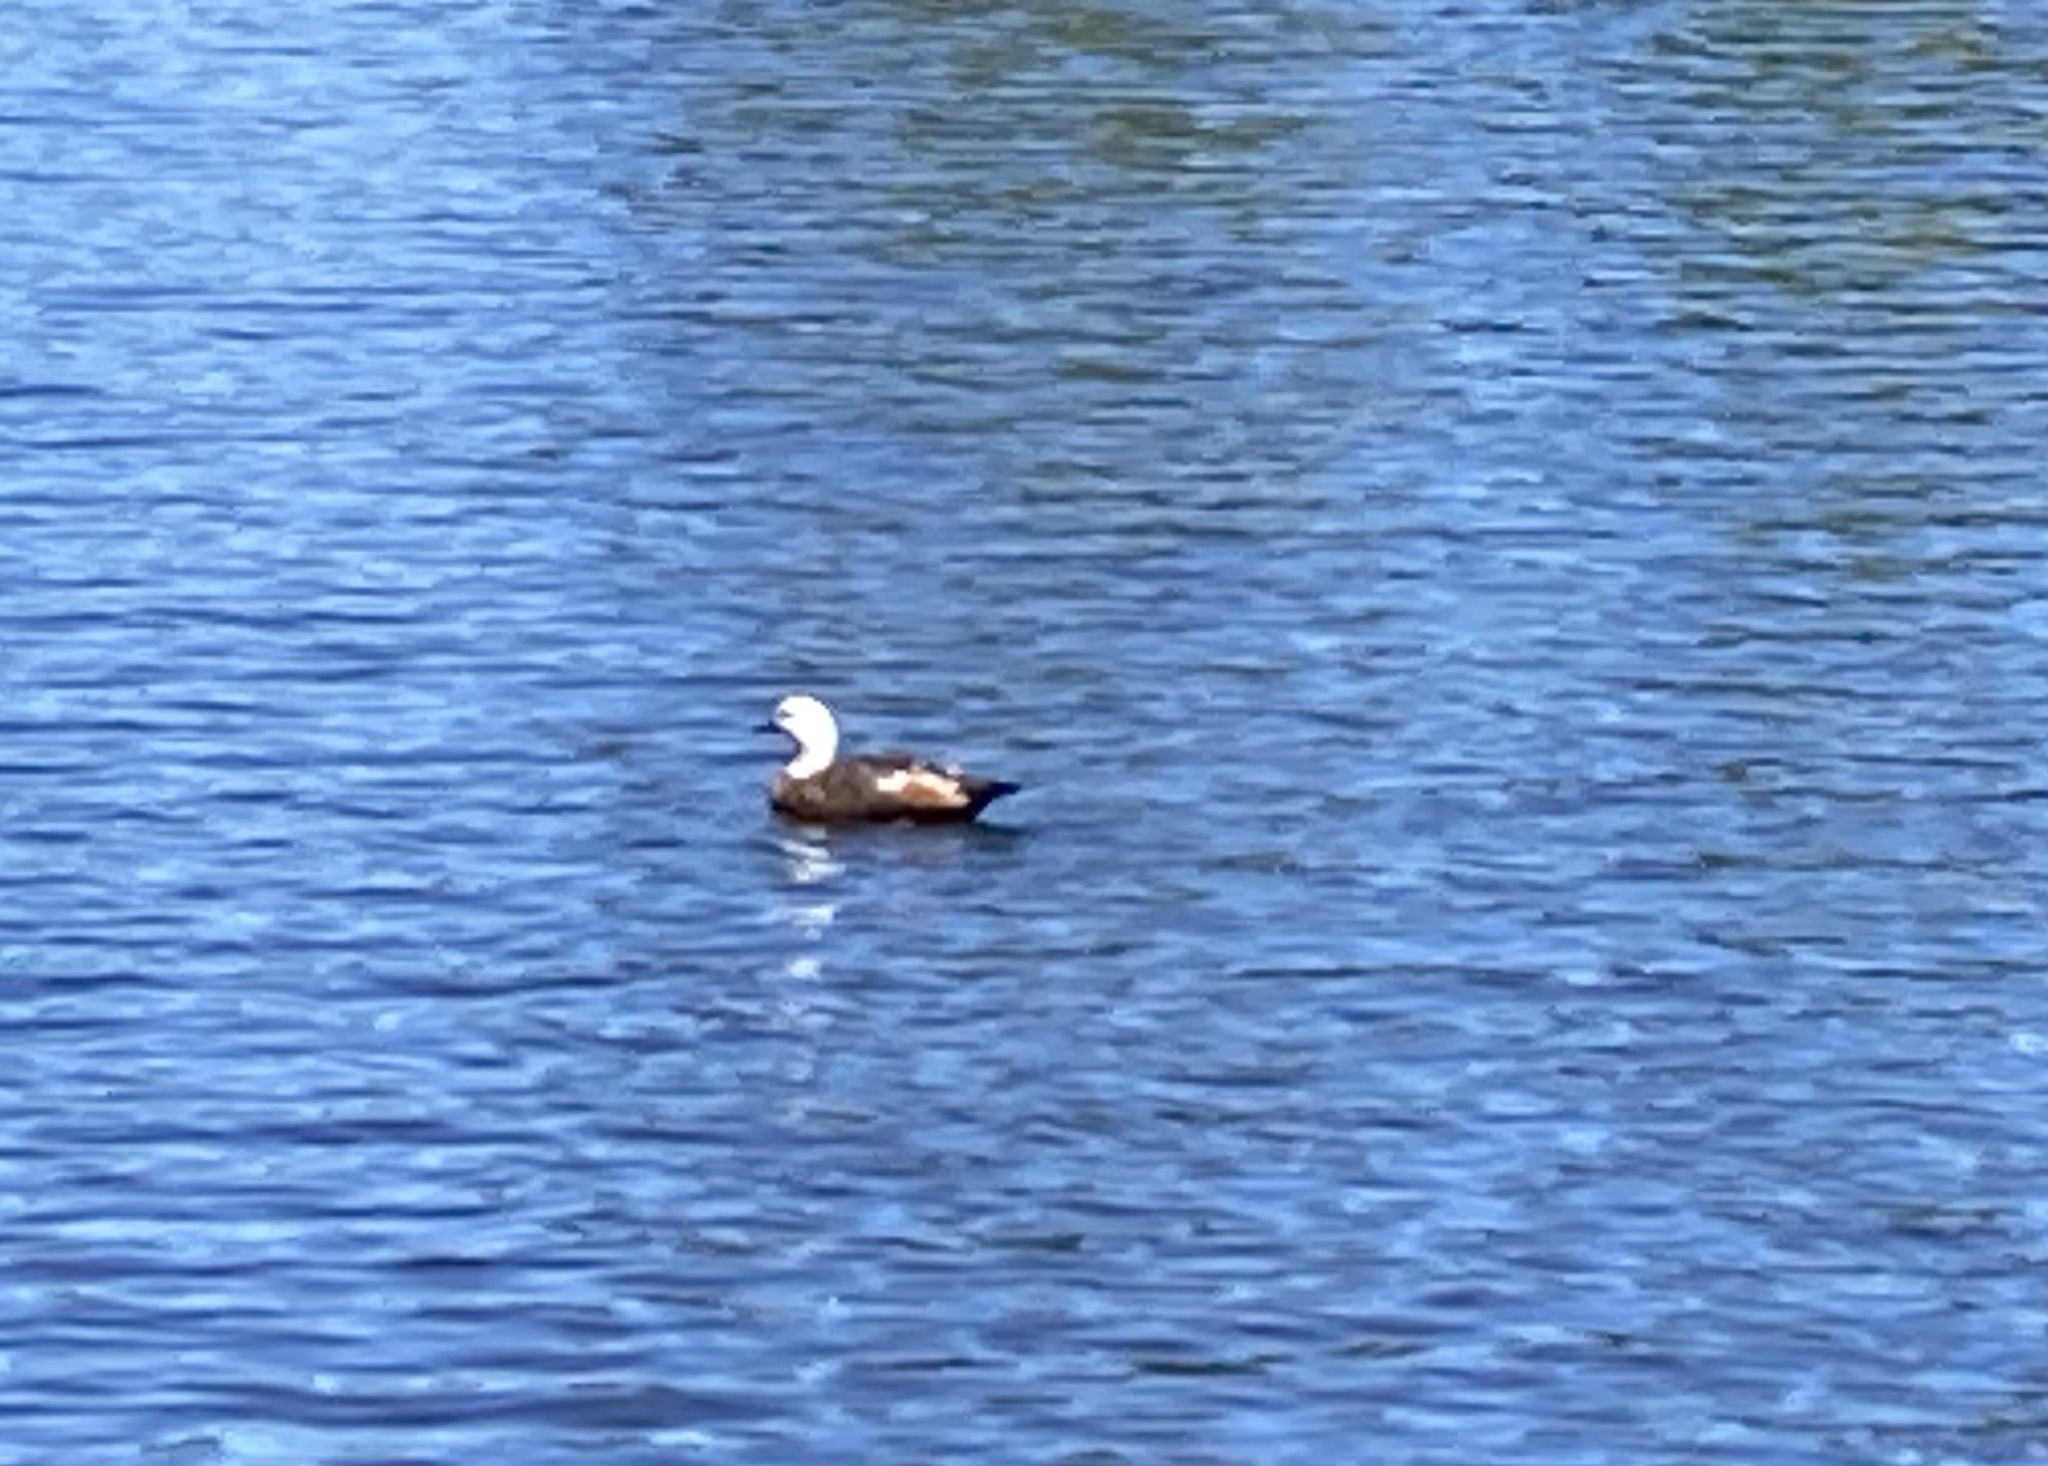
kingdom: Animalia
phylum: Chordata
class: Aves
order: Anseriformes
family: Anatidae
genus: Tadorna
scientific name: Tadorna variegata
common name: Paradise shelduck
